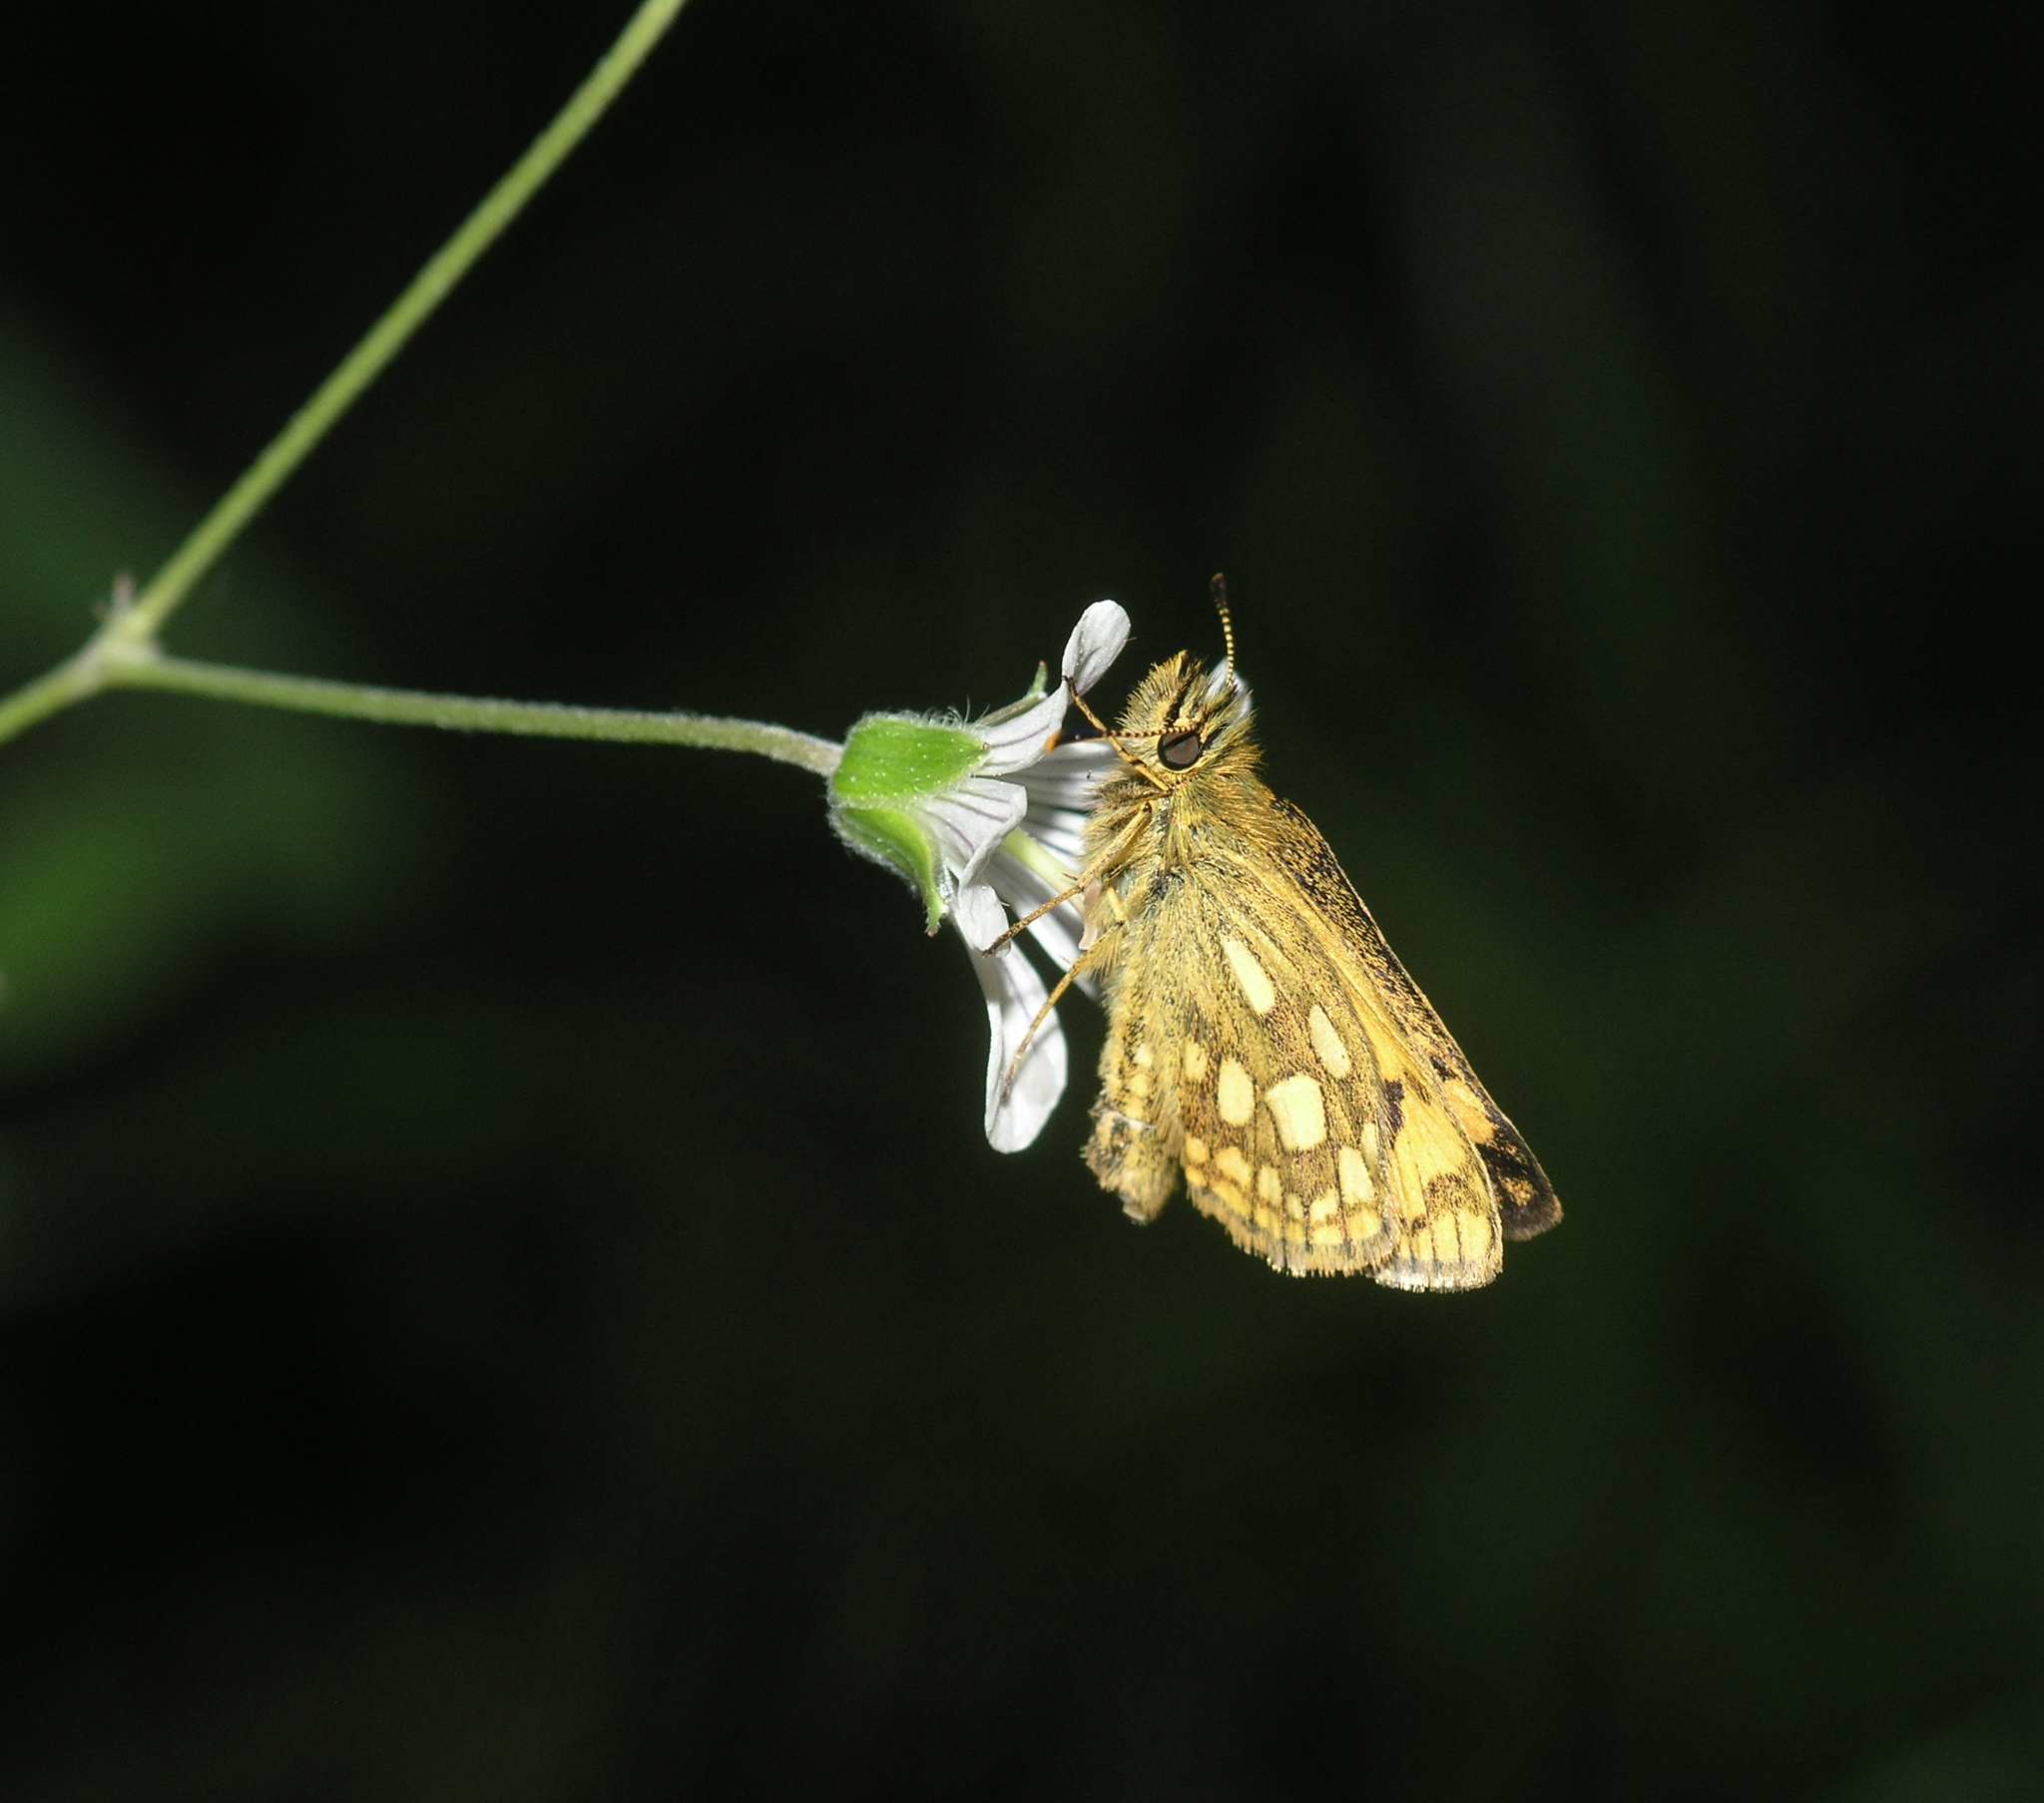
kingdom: Animalia
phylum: Arthropoda
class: Insecta
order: Lepidoptera
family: Hesperiidae
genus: Carterocephalus
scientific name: Carterocephalus silvicola
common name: Northern chequered skipper
